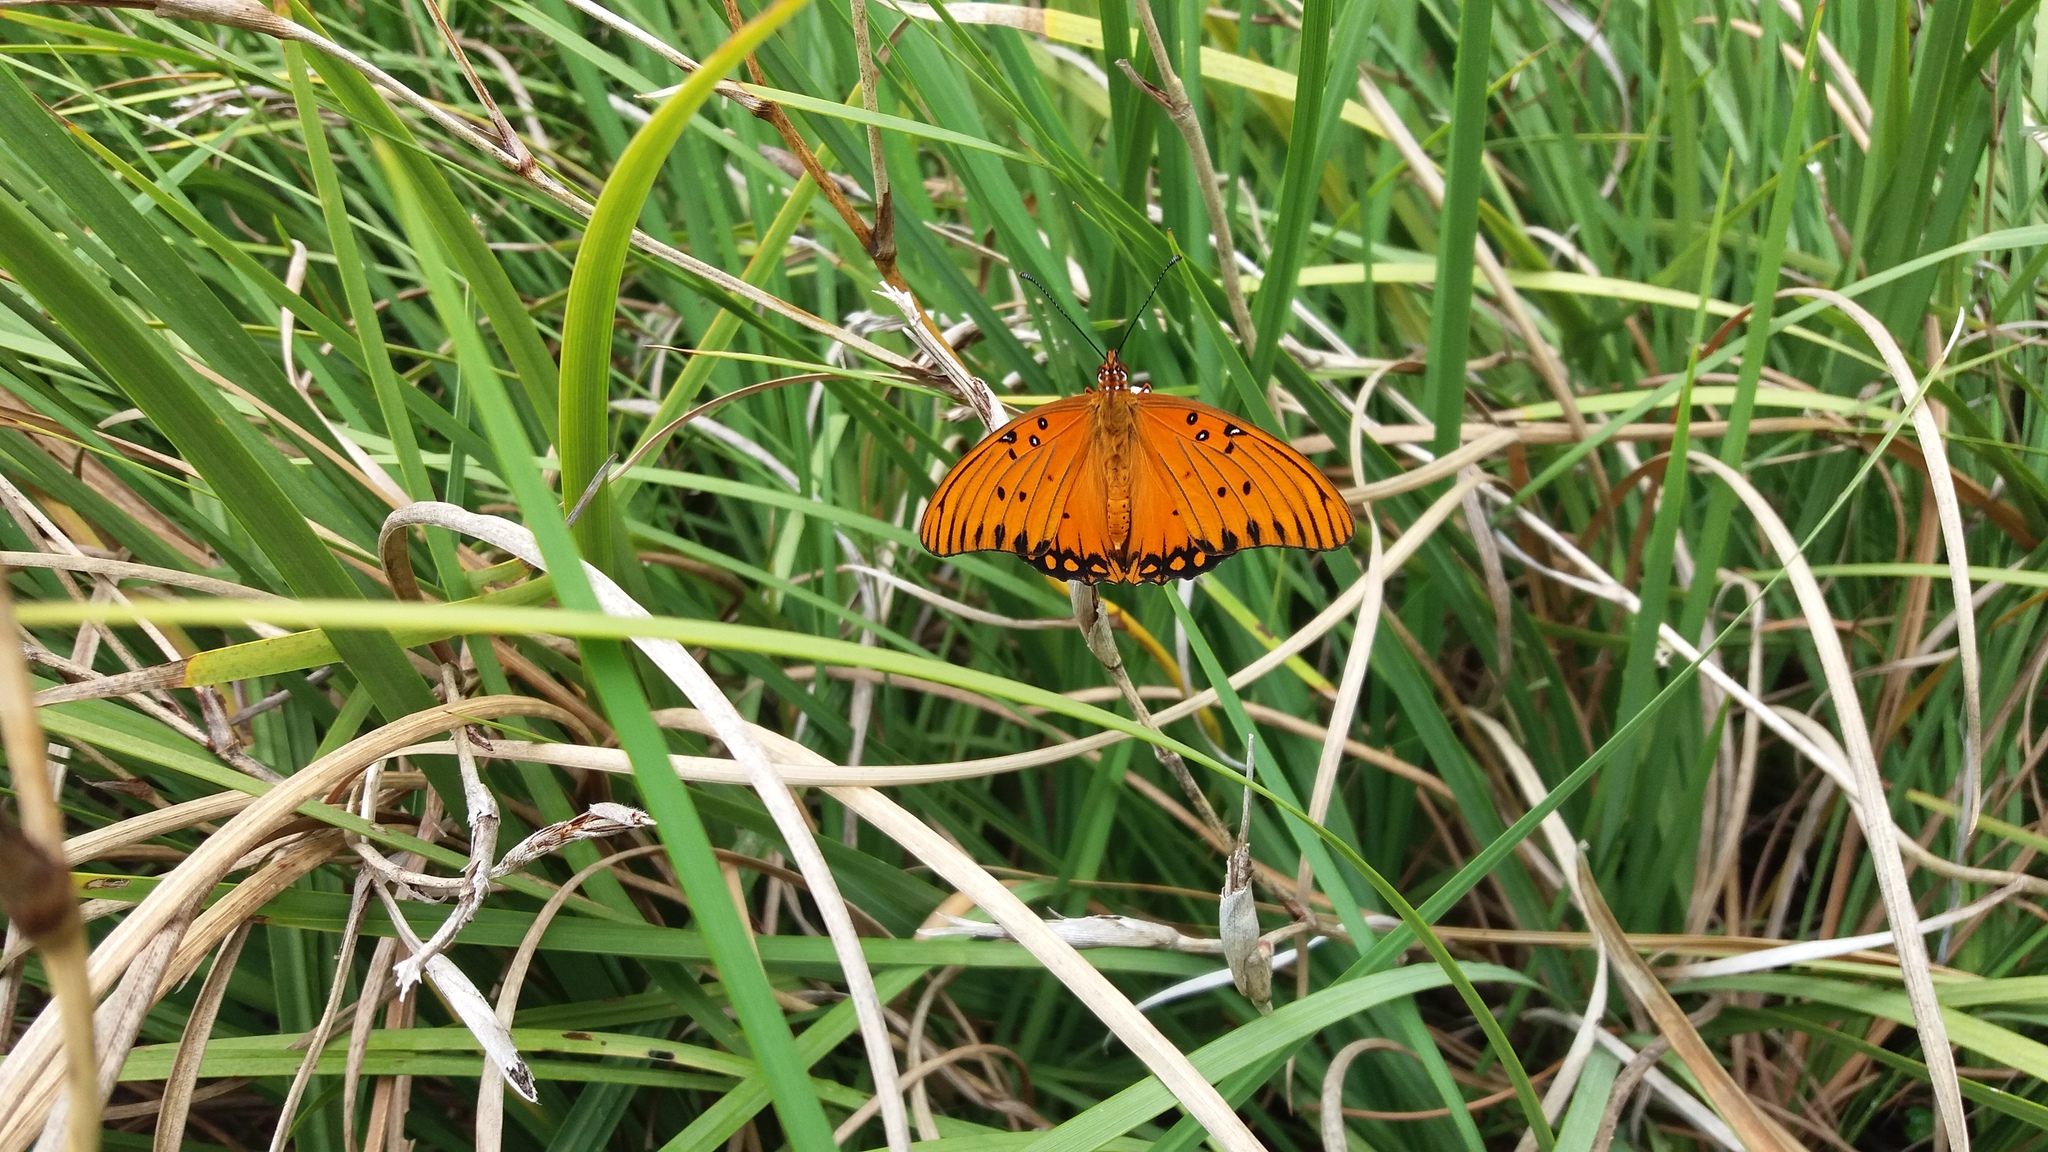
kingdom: Animalia
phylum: Arthropoda
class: Insecta
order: Lepidoptera
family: Nymphalidae
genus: Dione
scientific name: Dione vanillae
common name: Gulf fritillary
